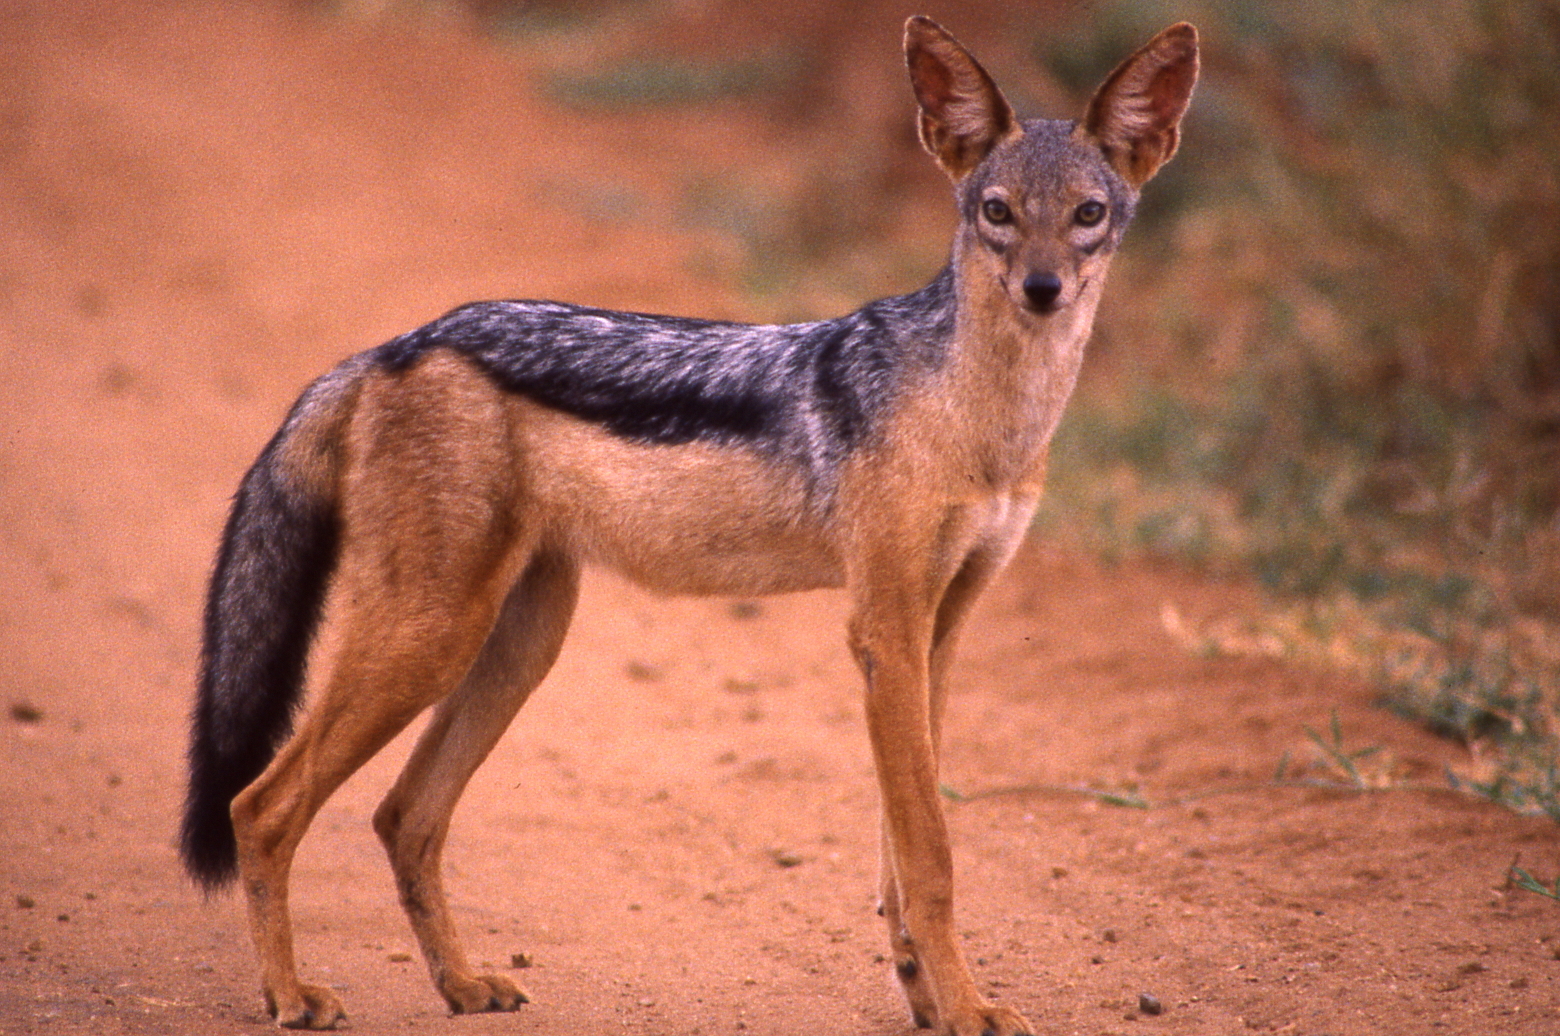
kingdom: Animalia
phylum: Chordata
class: Mammalia
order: Carnivora
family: Canidae
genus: Lupulella
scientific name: Lupulella
